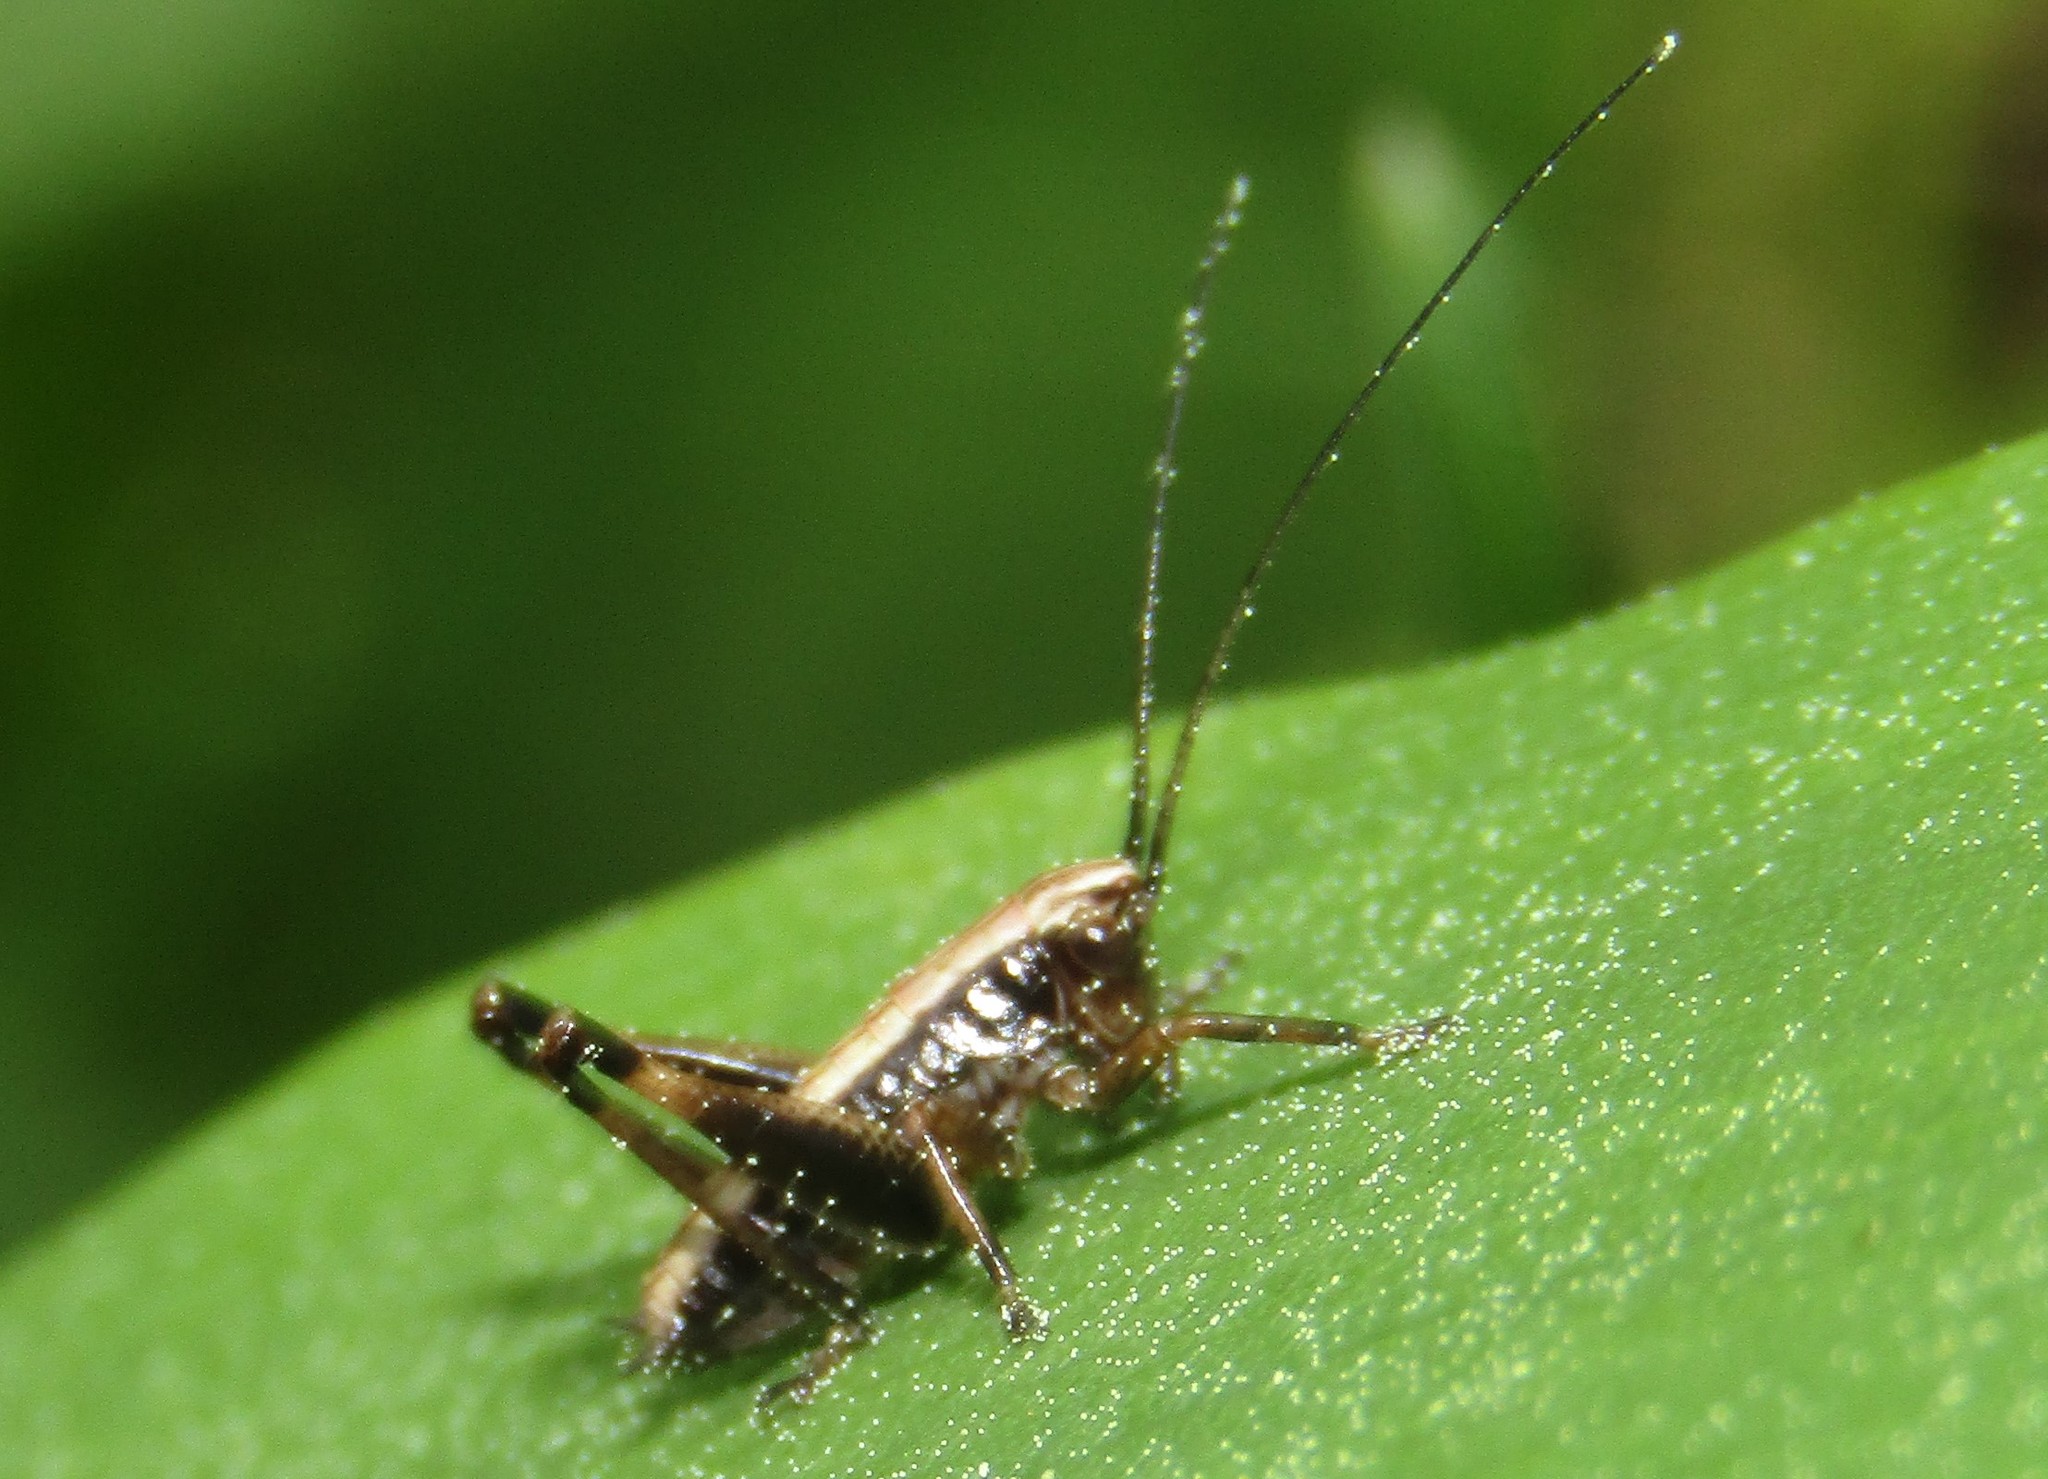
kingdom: Animalia
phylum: Arthropoda
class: Insecta
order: Orthoptera
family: Tettigoniidae
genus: Pholidoptera
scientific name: Pholidoptera griseoaptera
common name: Dark bush-cricket
